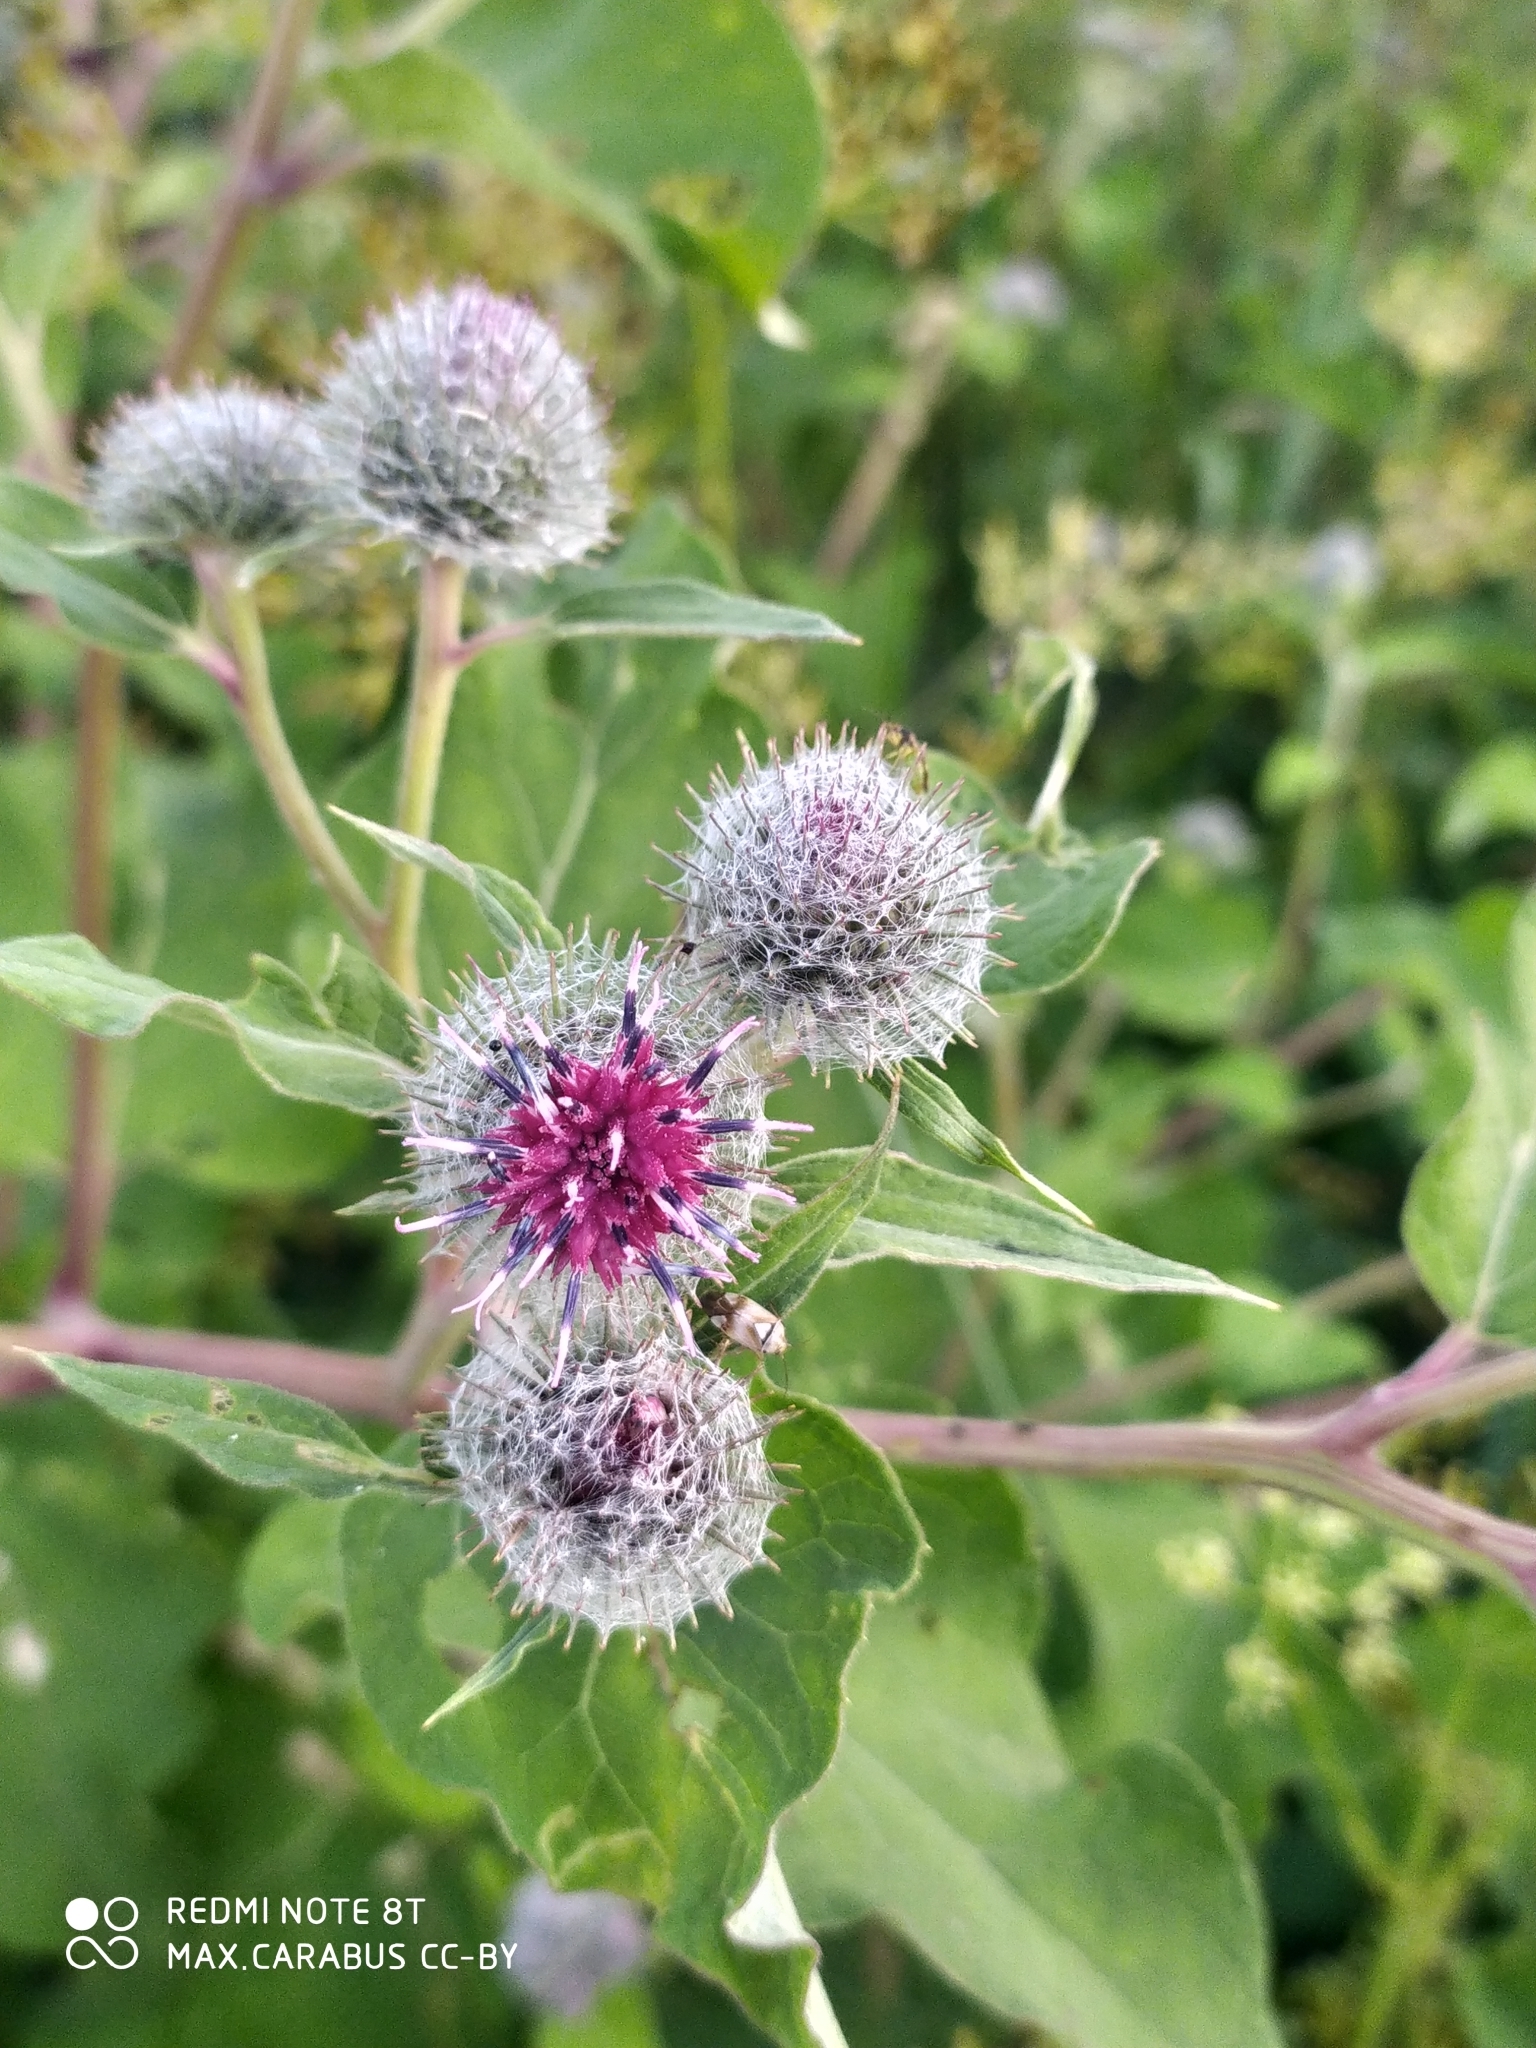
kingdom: Plantae
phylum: Tracheophyta
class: Magnoliopsida
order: Asterales
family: Asteraceae
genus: Arctium
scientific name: Arctium tomentosum
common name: Woolly burdock
